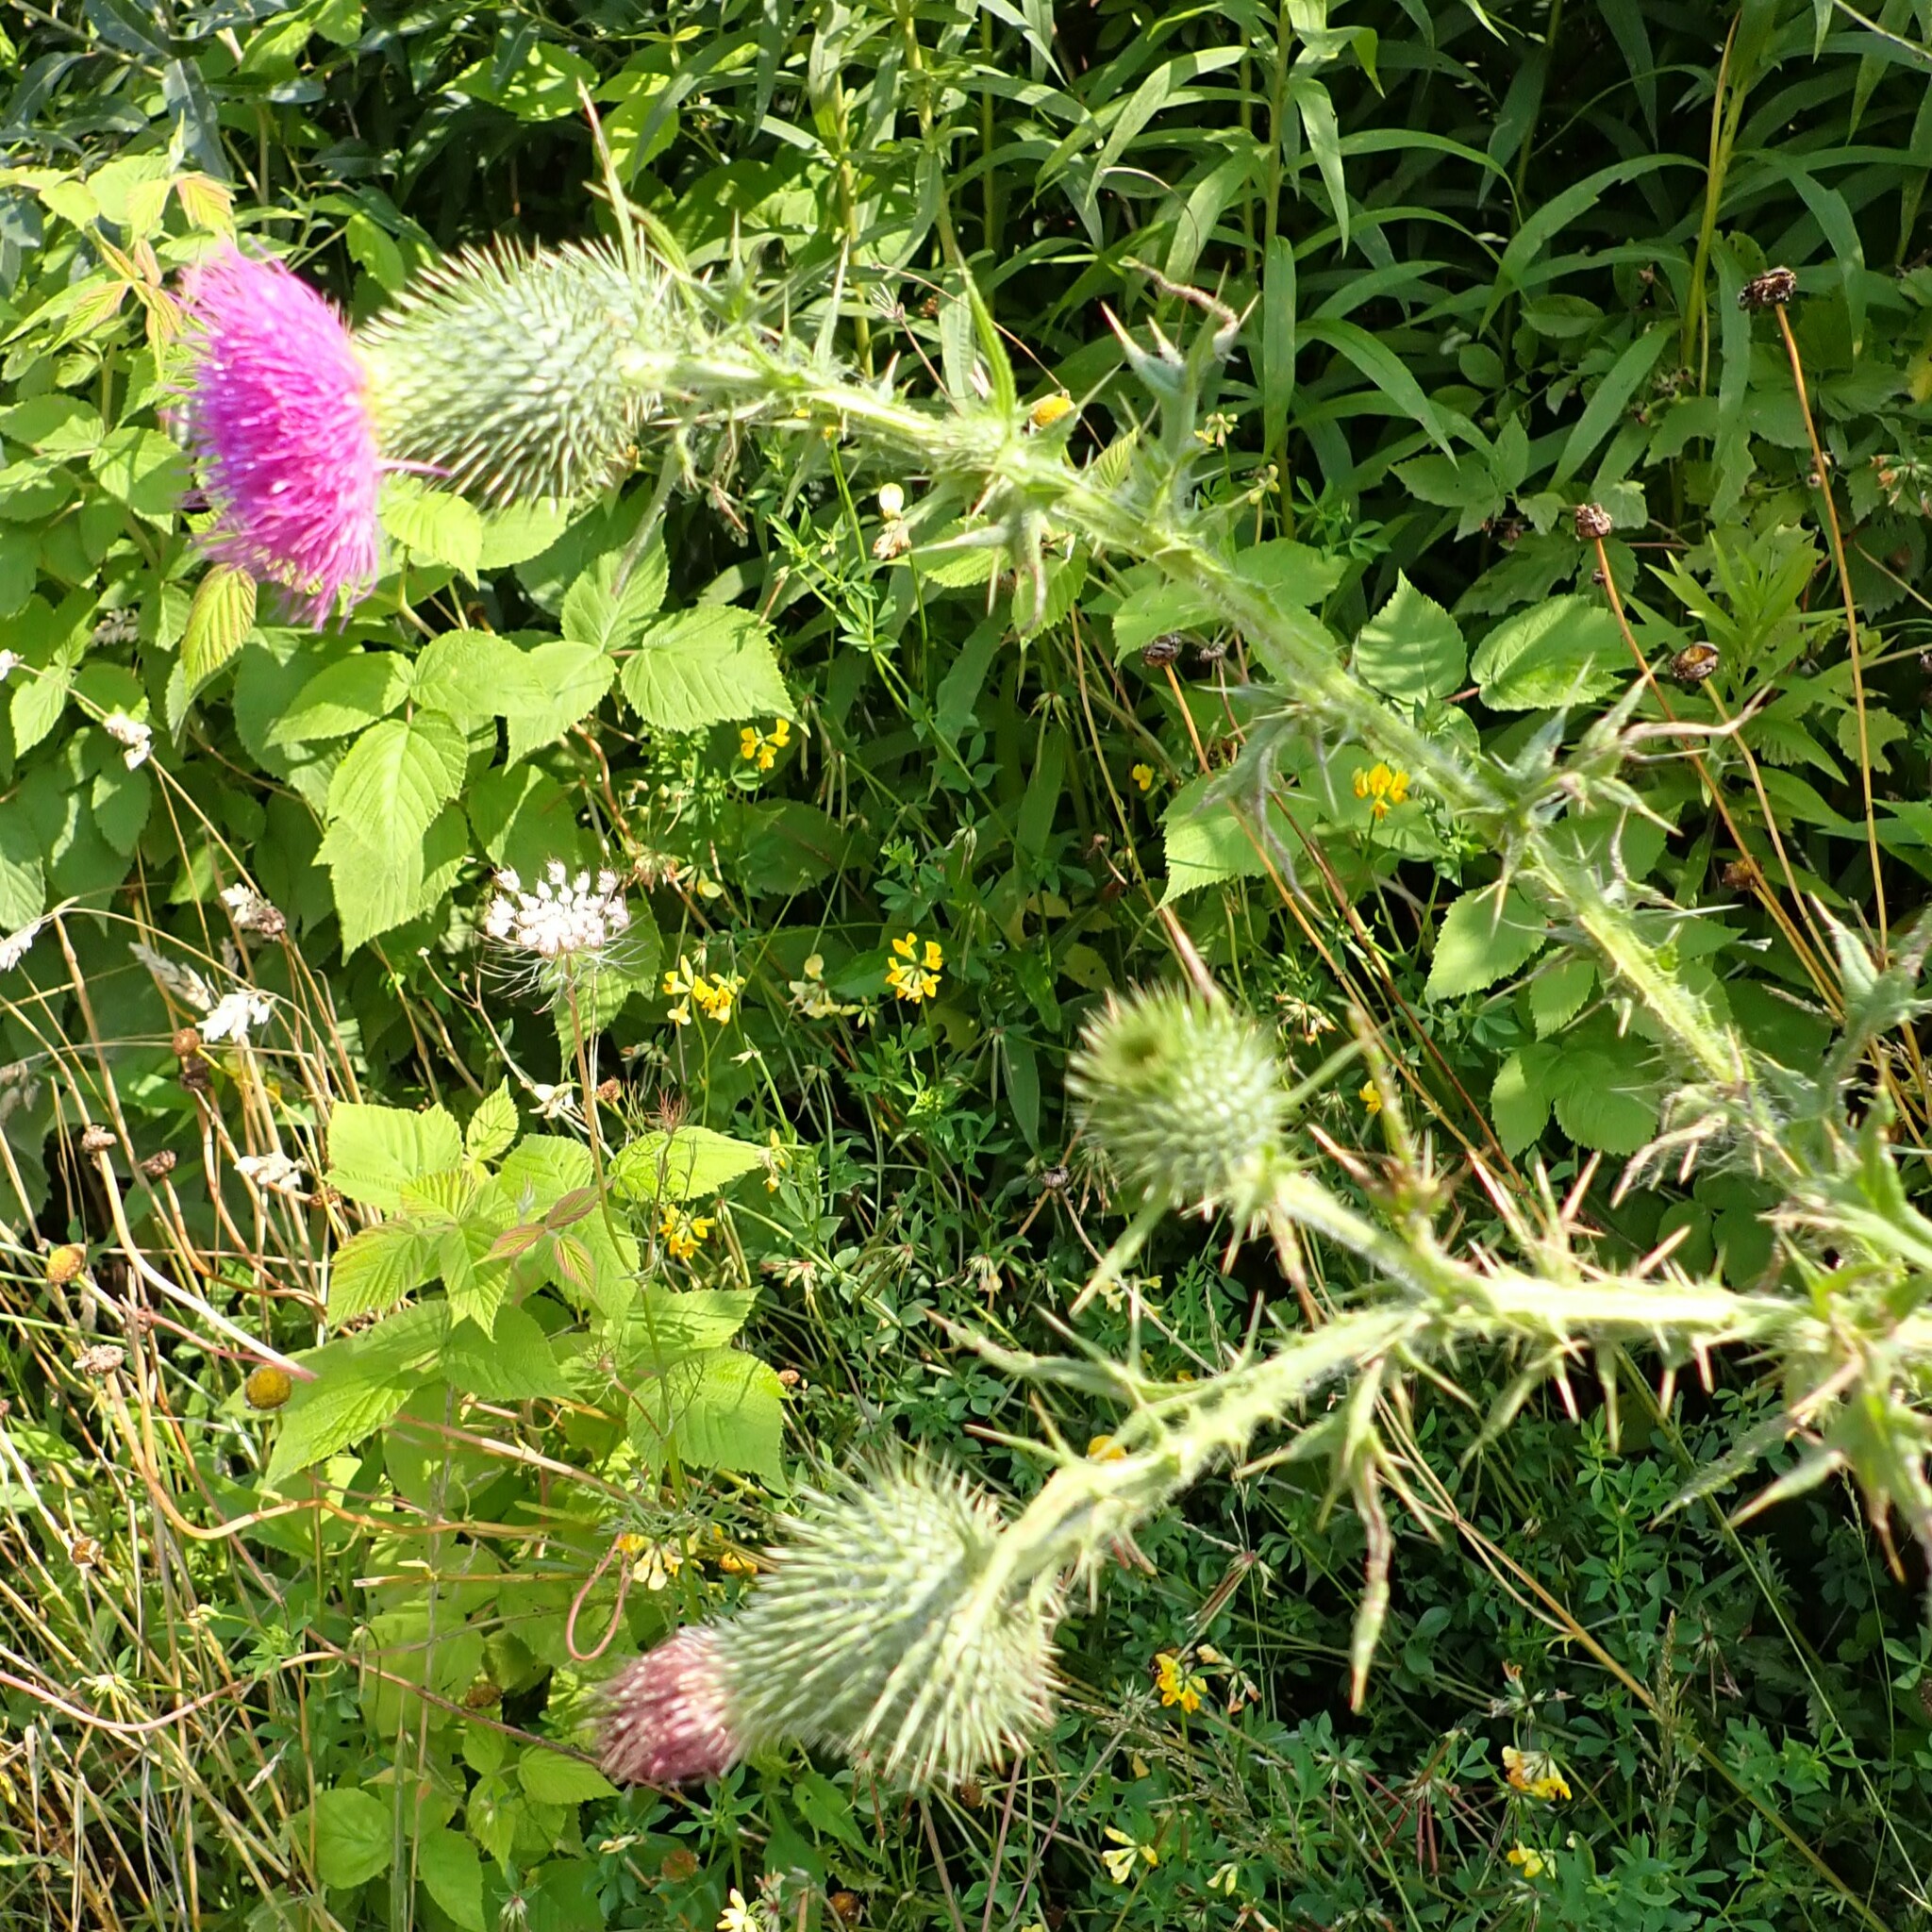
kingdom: Plantae
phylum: Tracheophyta
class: Magnoliopsida
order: Asterales
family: Asteraceae
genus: Cirsium
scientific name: Cirsium vulgare
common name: Bull thistle
